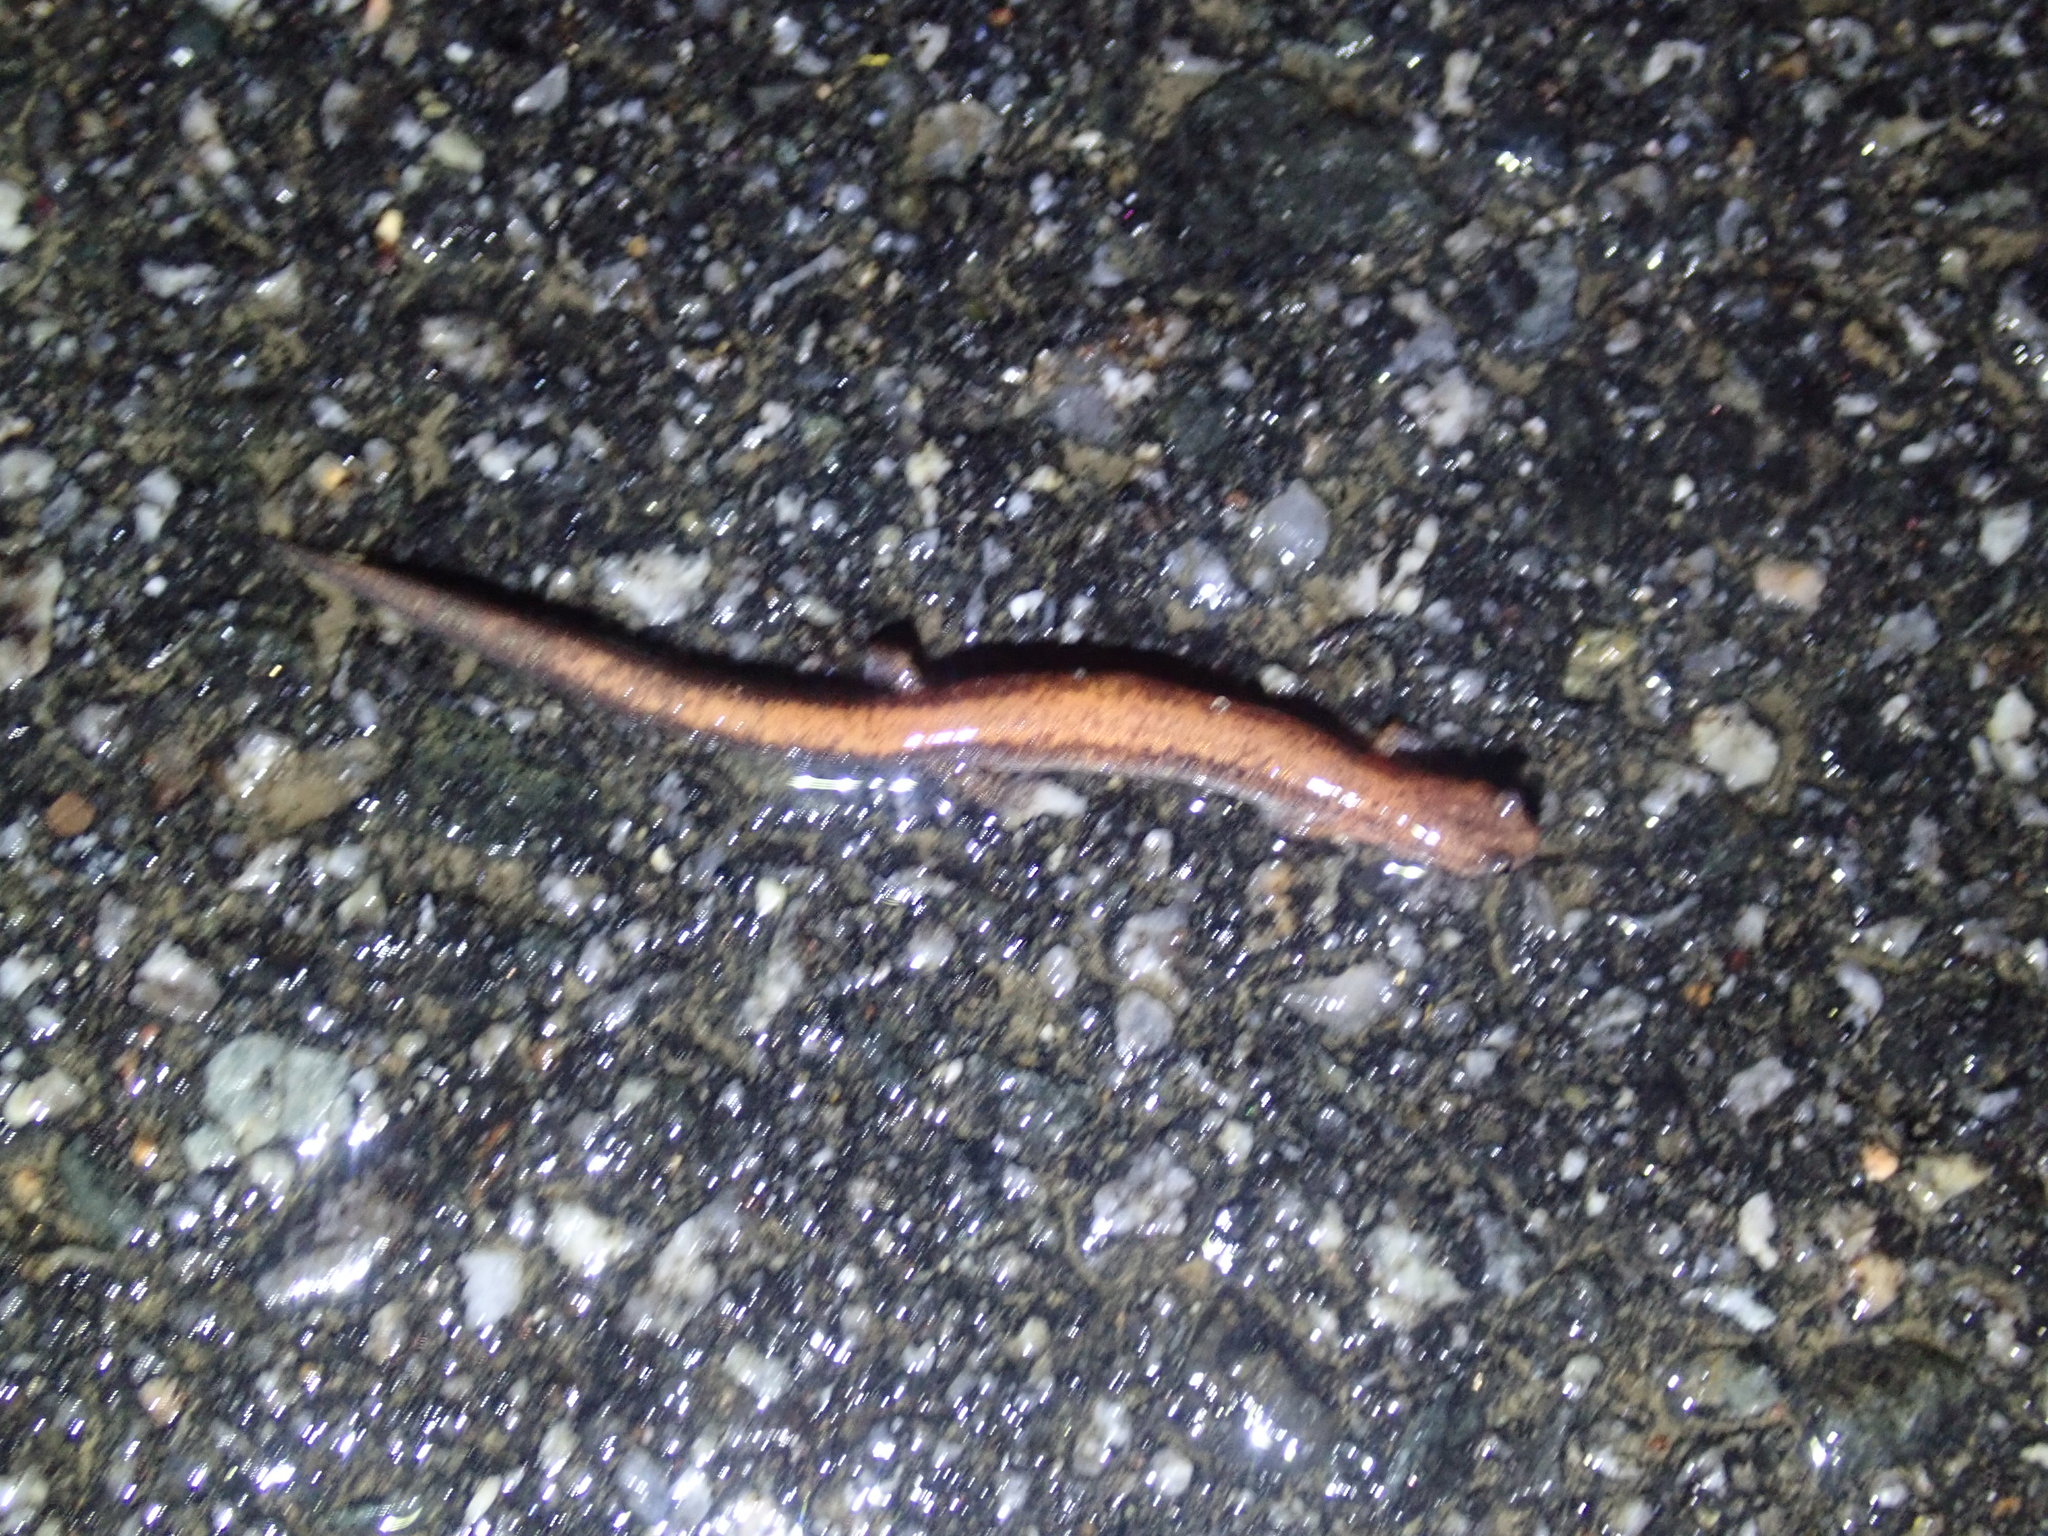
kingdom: Animalia
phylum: Chordata
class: Amphibia
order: Caudata
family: Plethodontidae
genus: Plethodon
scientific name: Plethodon cinereus
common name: Redback salamander
